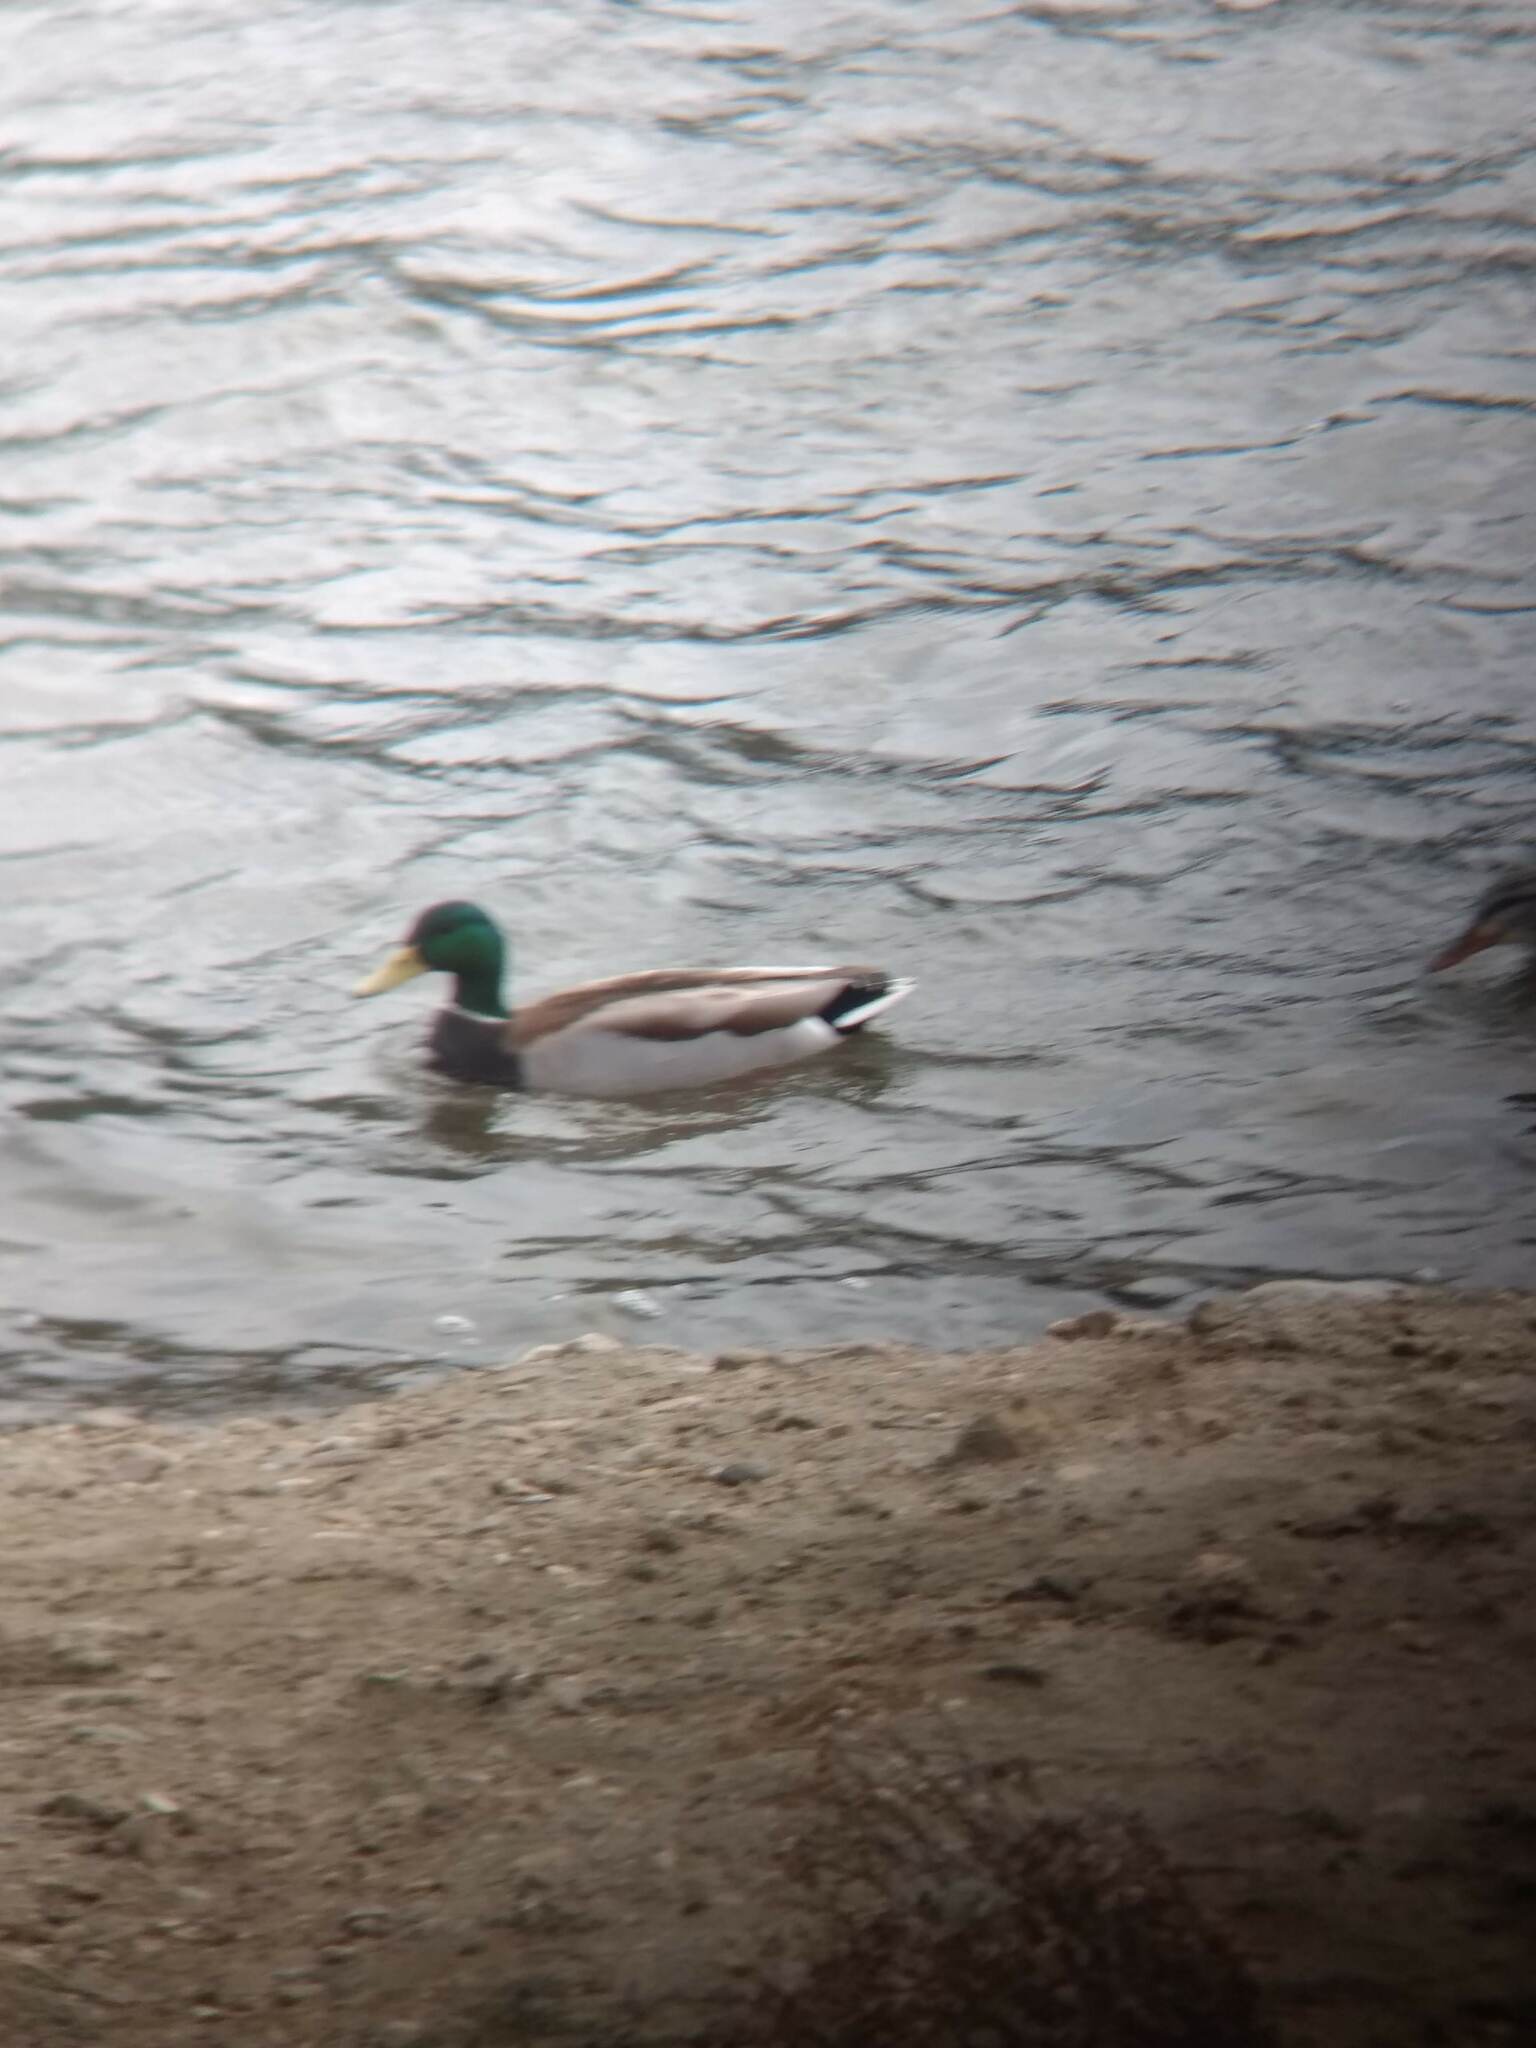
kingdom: Animalia
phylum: Chordata
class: Aves
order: Anseriformes
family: Anatidae
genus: Anas
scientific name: Anas platyrhynchos
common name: Mallard
